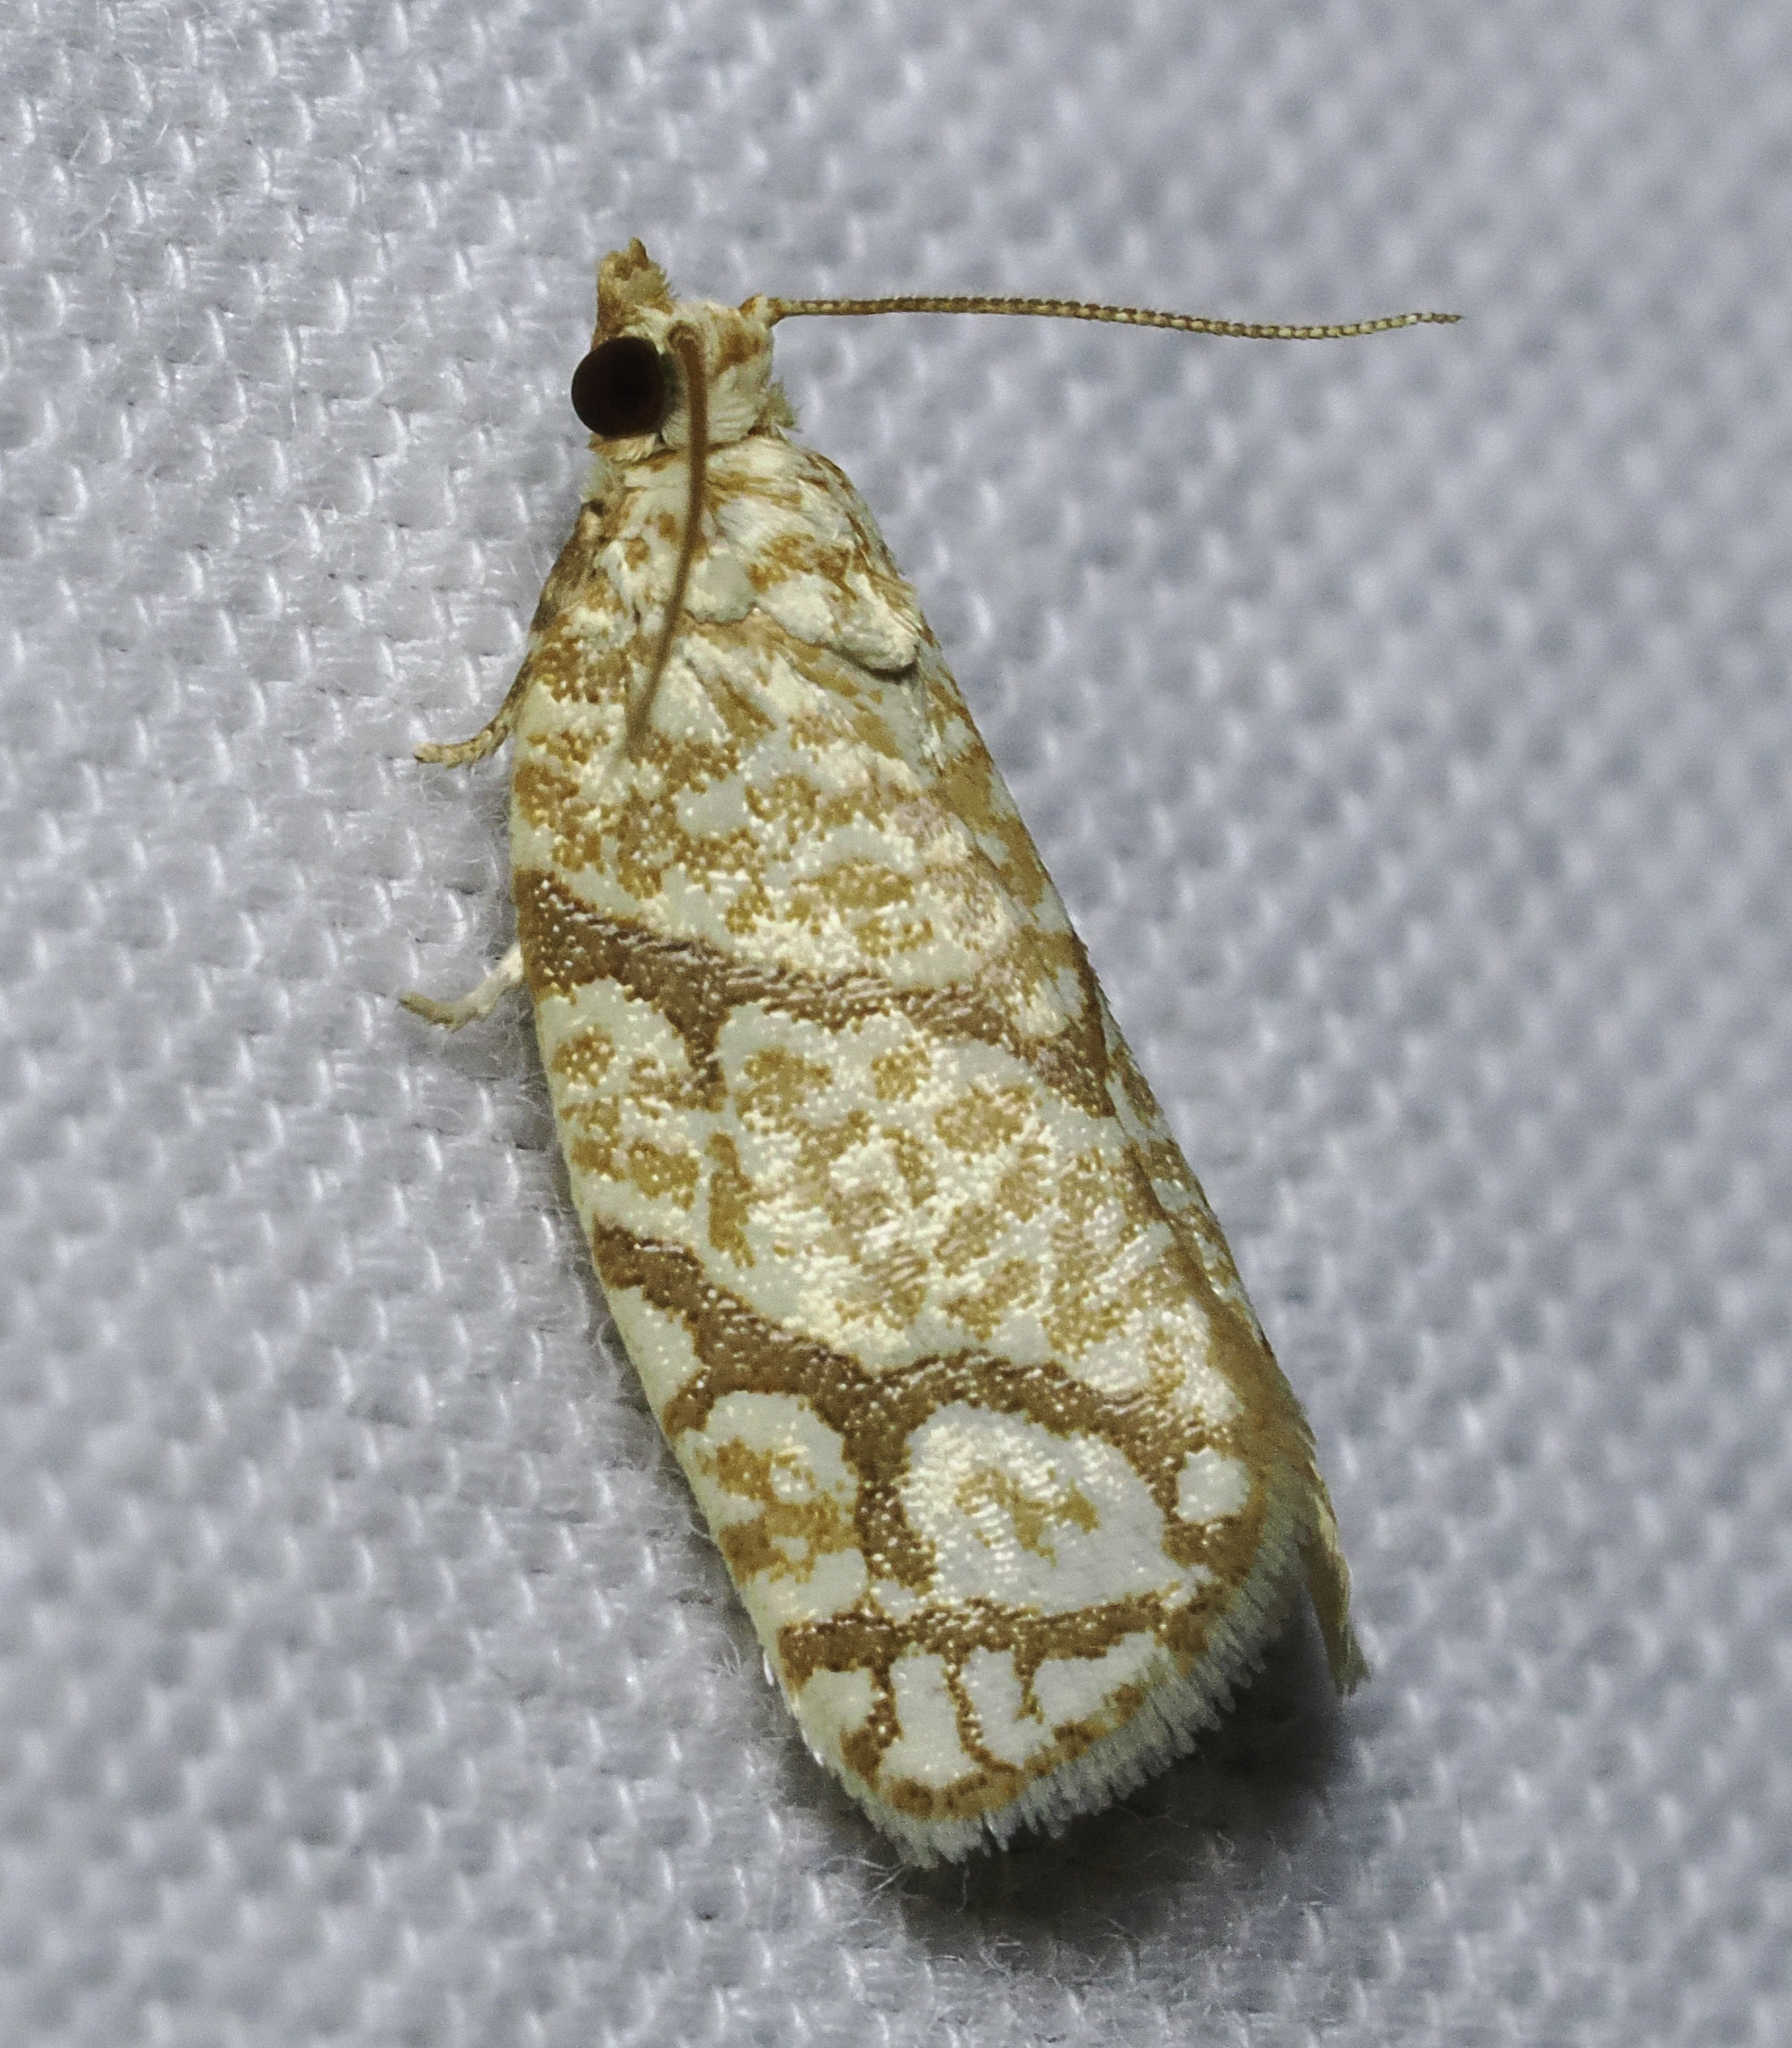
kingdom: Animalia
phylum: Arthropoda
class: Insecta
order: Lepidoptera
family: Tortricidae
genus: Argyrotaenia
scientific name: Argyrotaenia quercifoliana
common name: Yellow-winged oak leafroller moth
